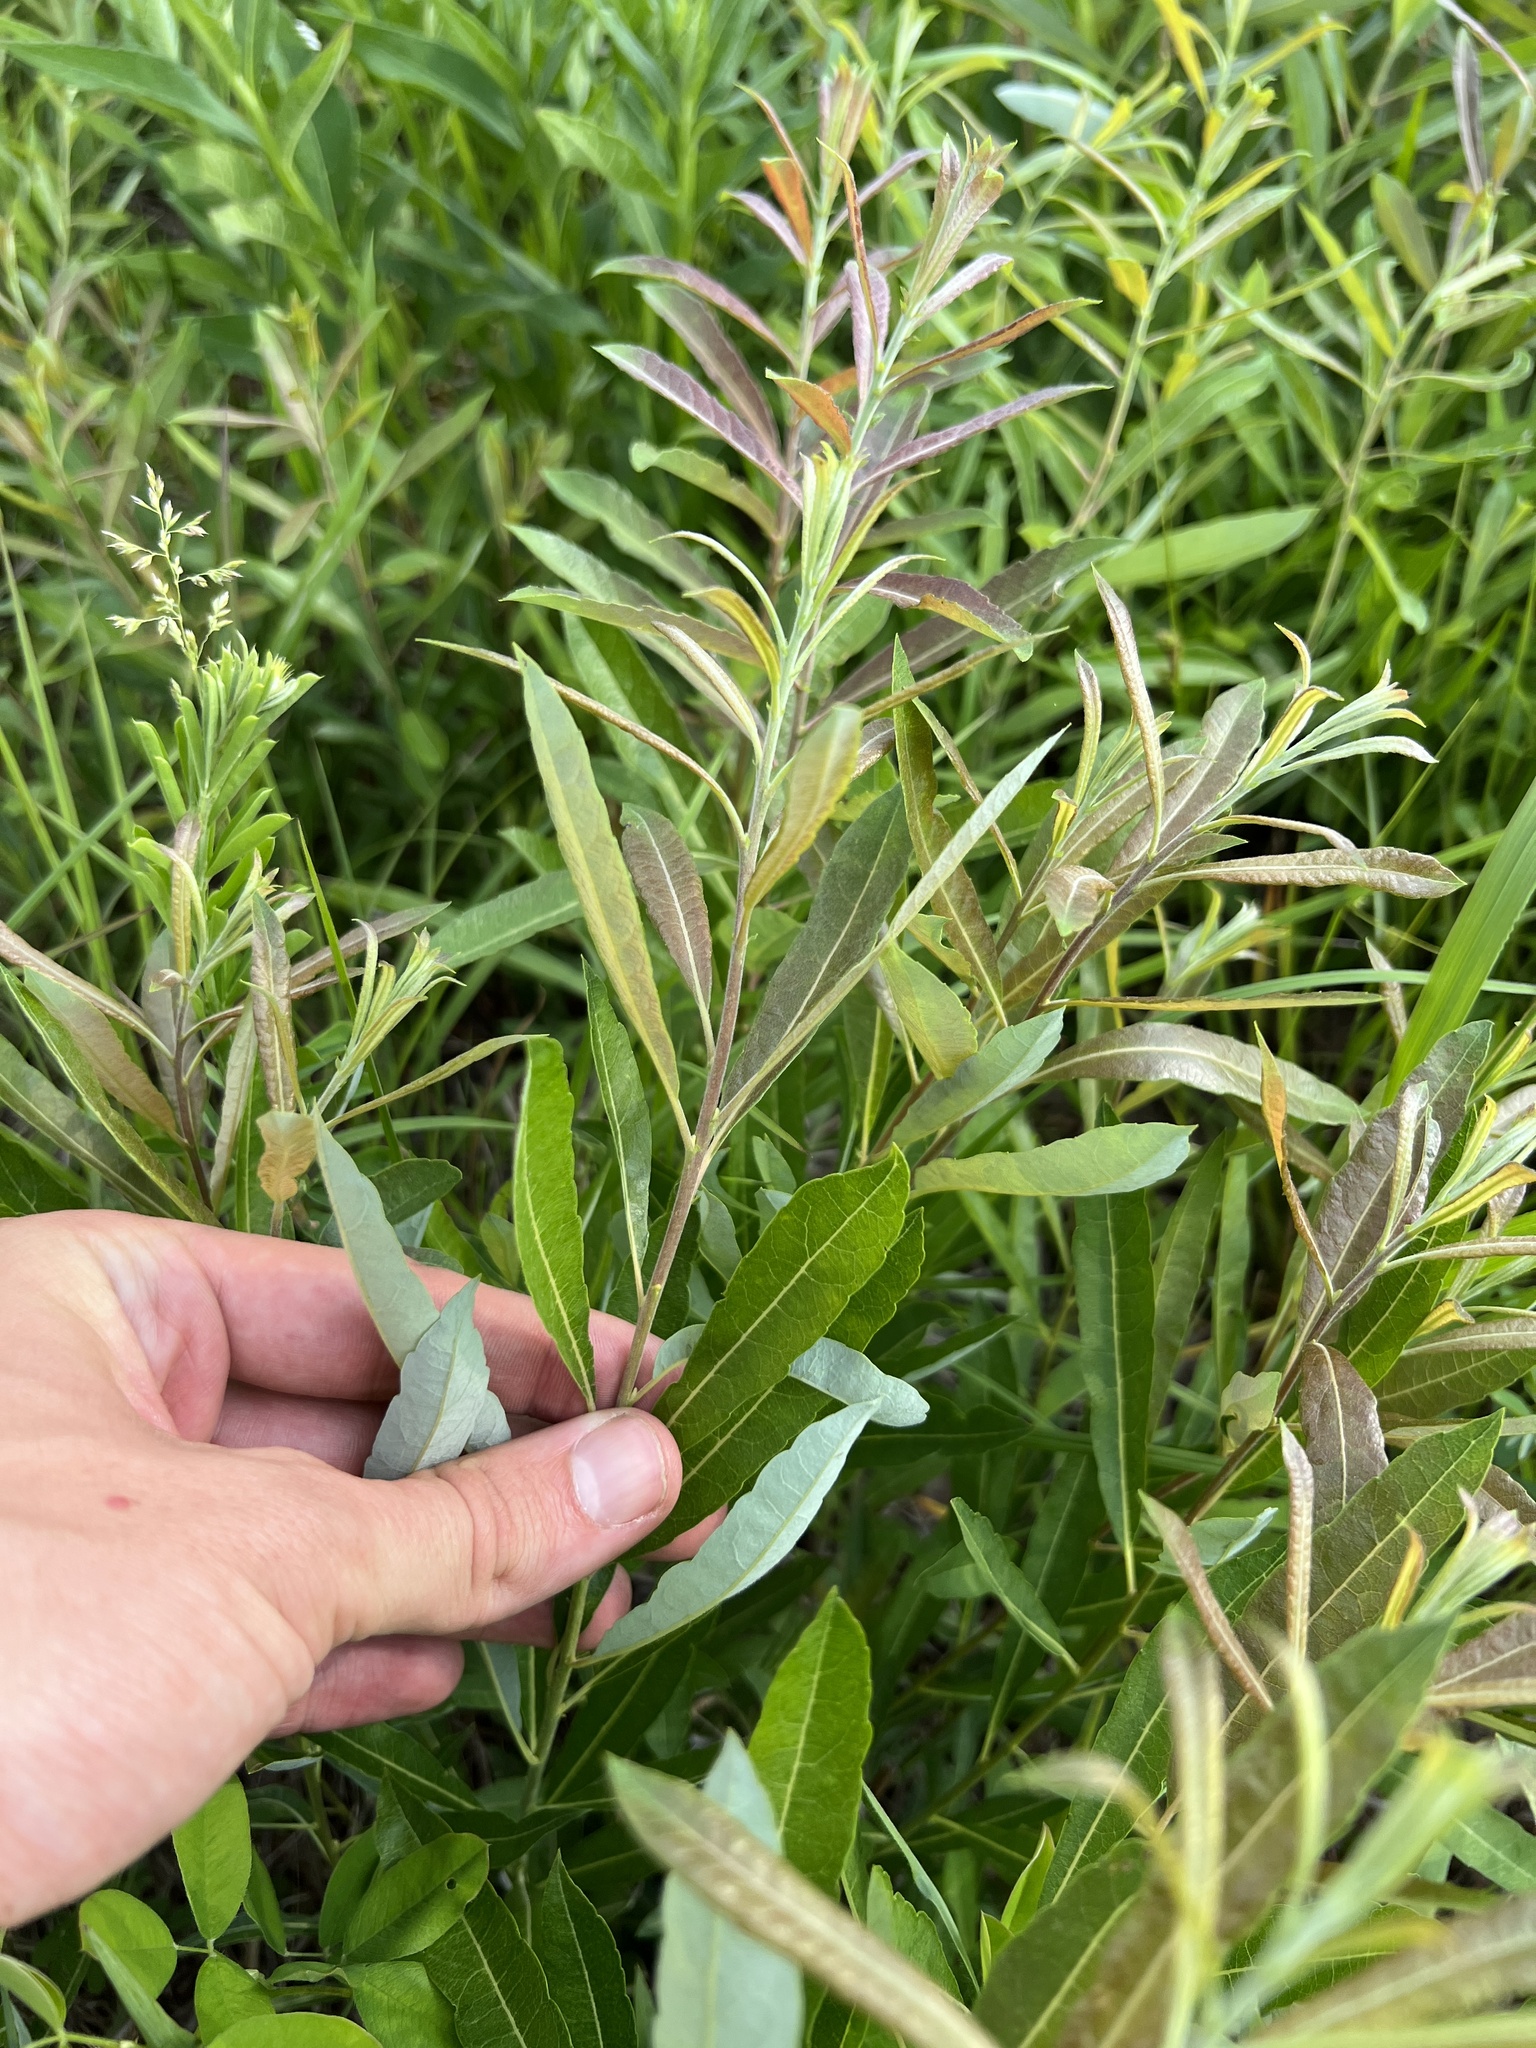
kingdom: Plantae
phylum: Tracheophyta
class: Magnoliopsida
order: Malpighiales
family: Salicaceae
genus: Salix
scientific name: Salix humilis
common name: Prairie willow
